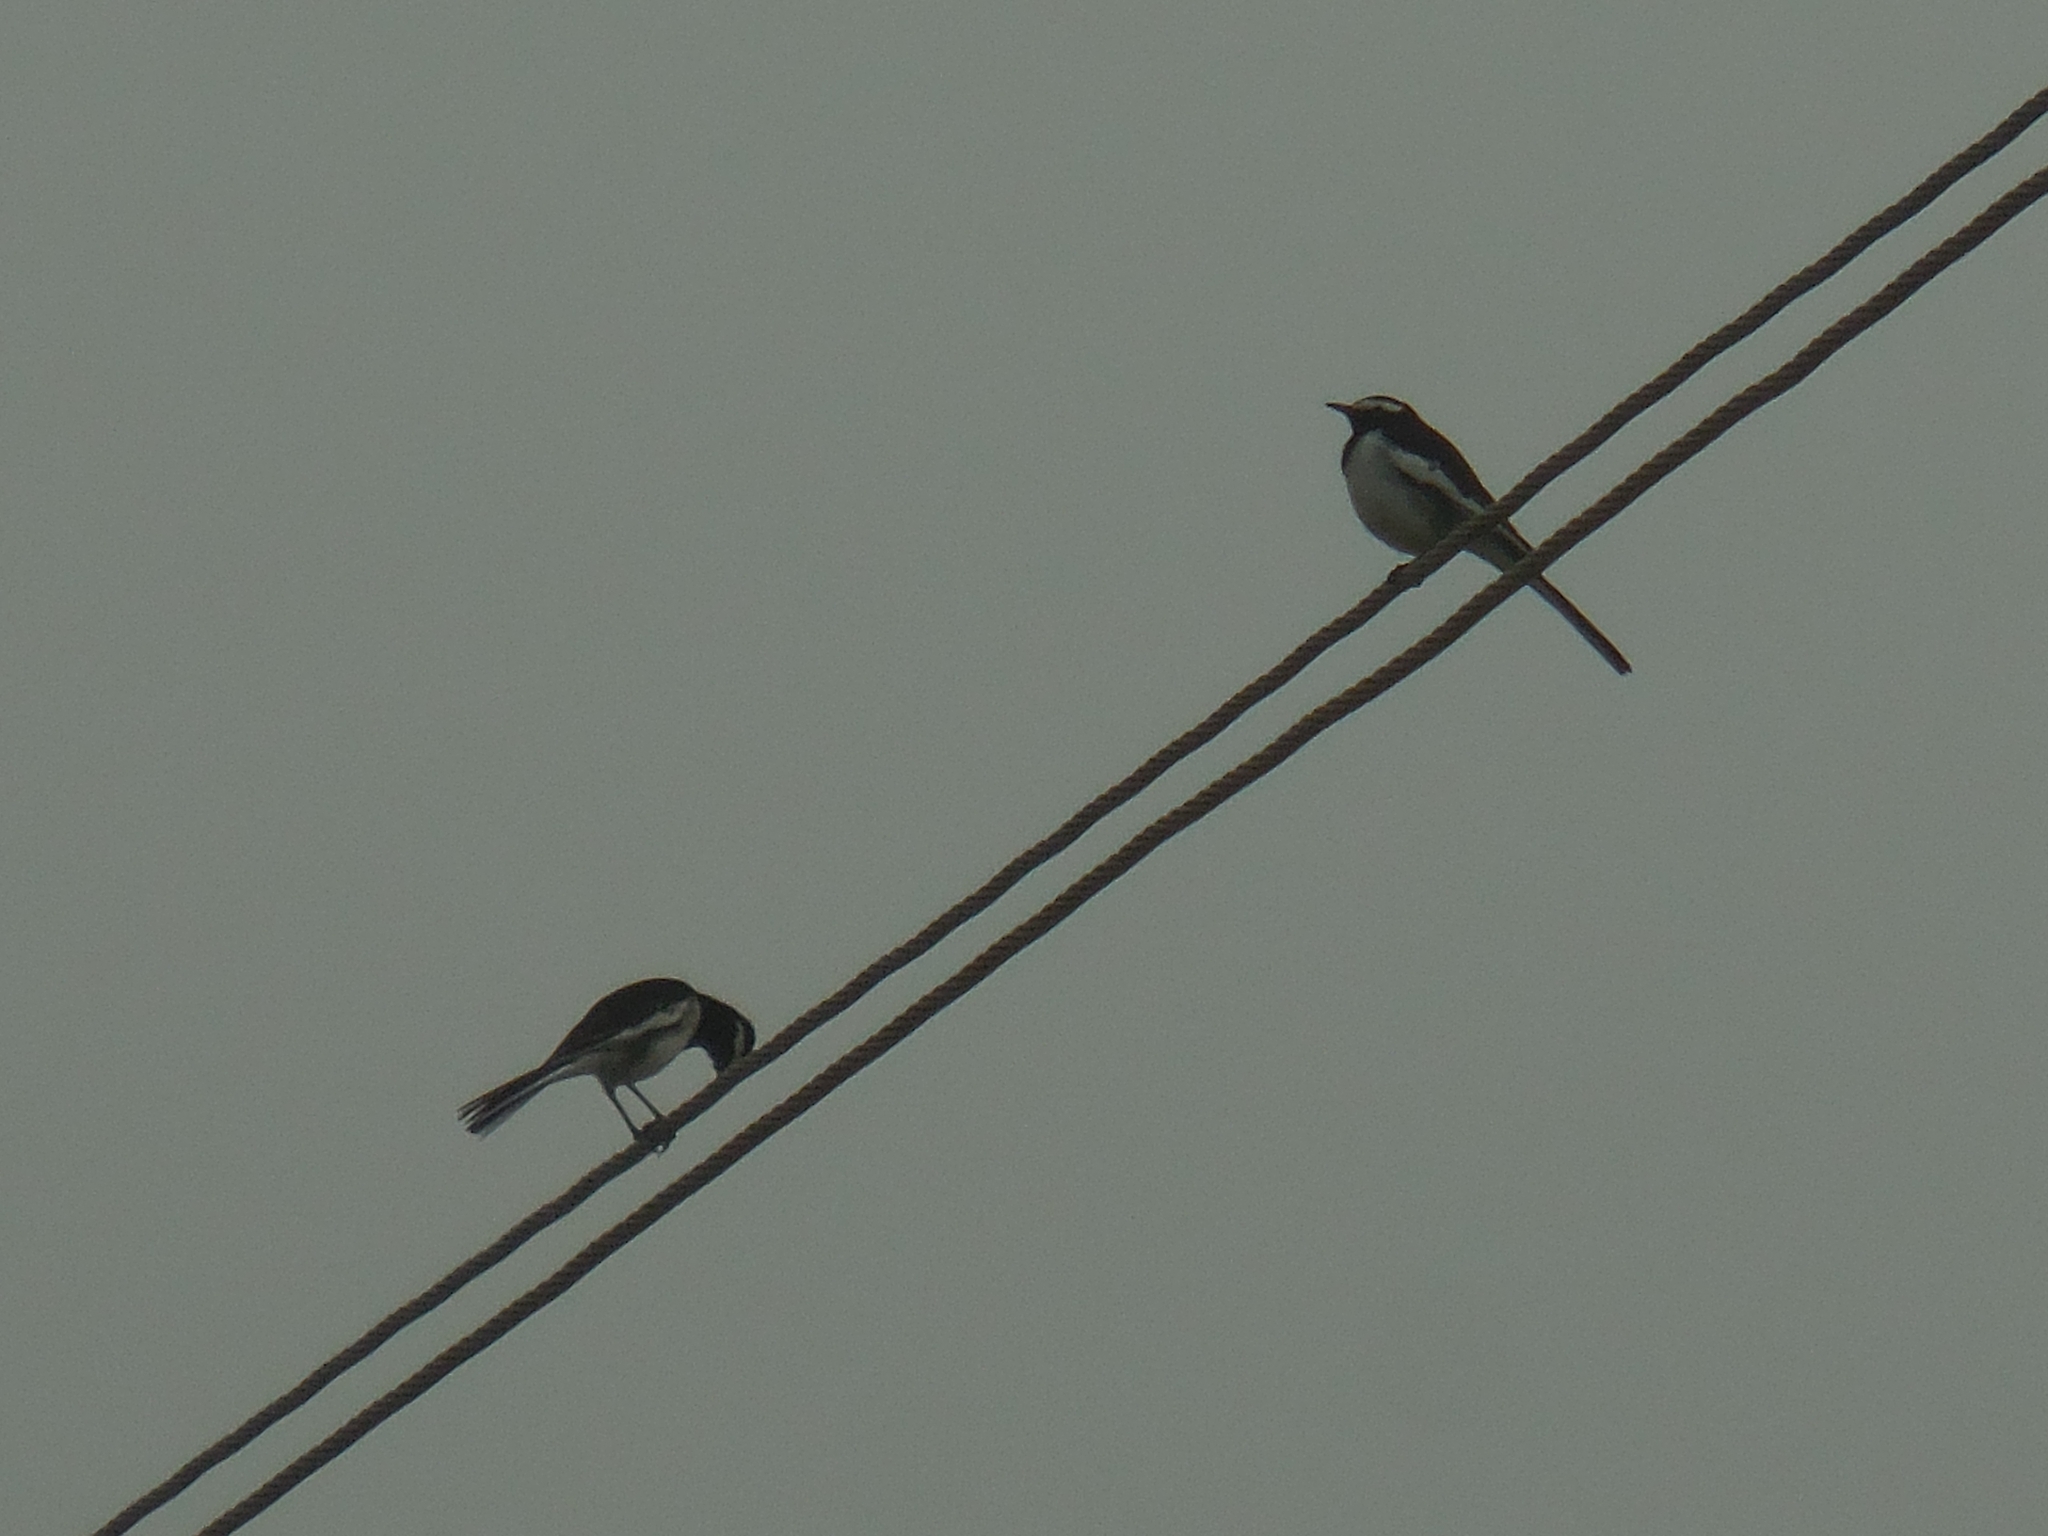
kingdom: Animalia
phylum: Chordata
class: Aves
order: Passeriformes
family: Motacillidae
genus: Motacilla
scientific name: Motacilla maderaspatensis
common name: White-browed wagtail
